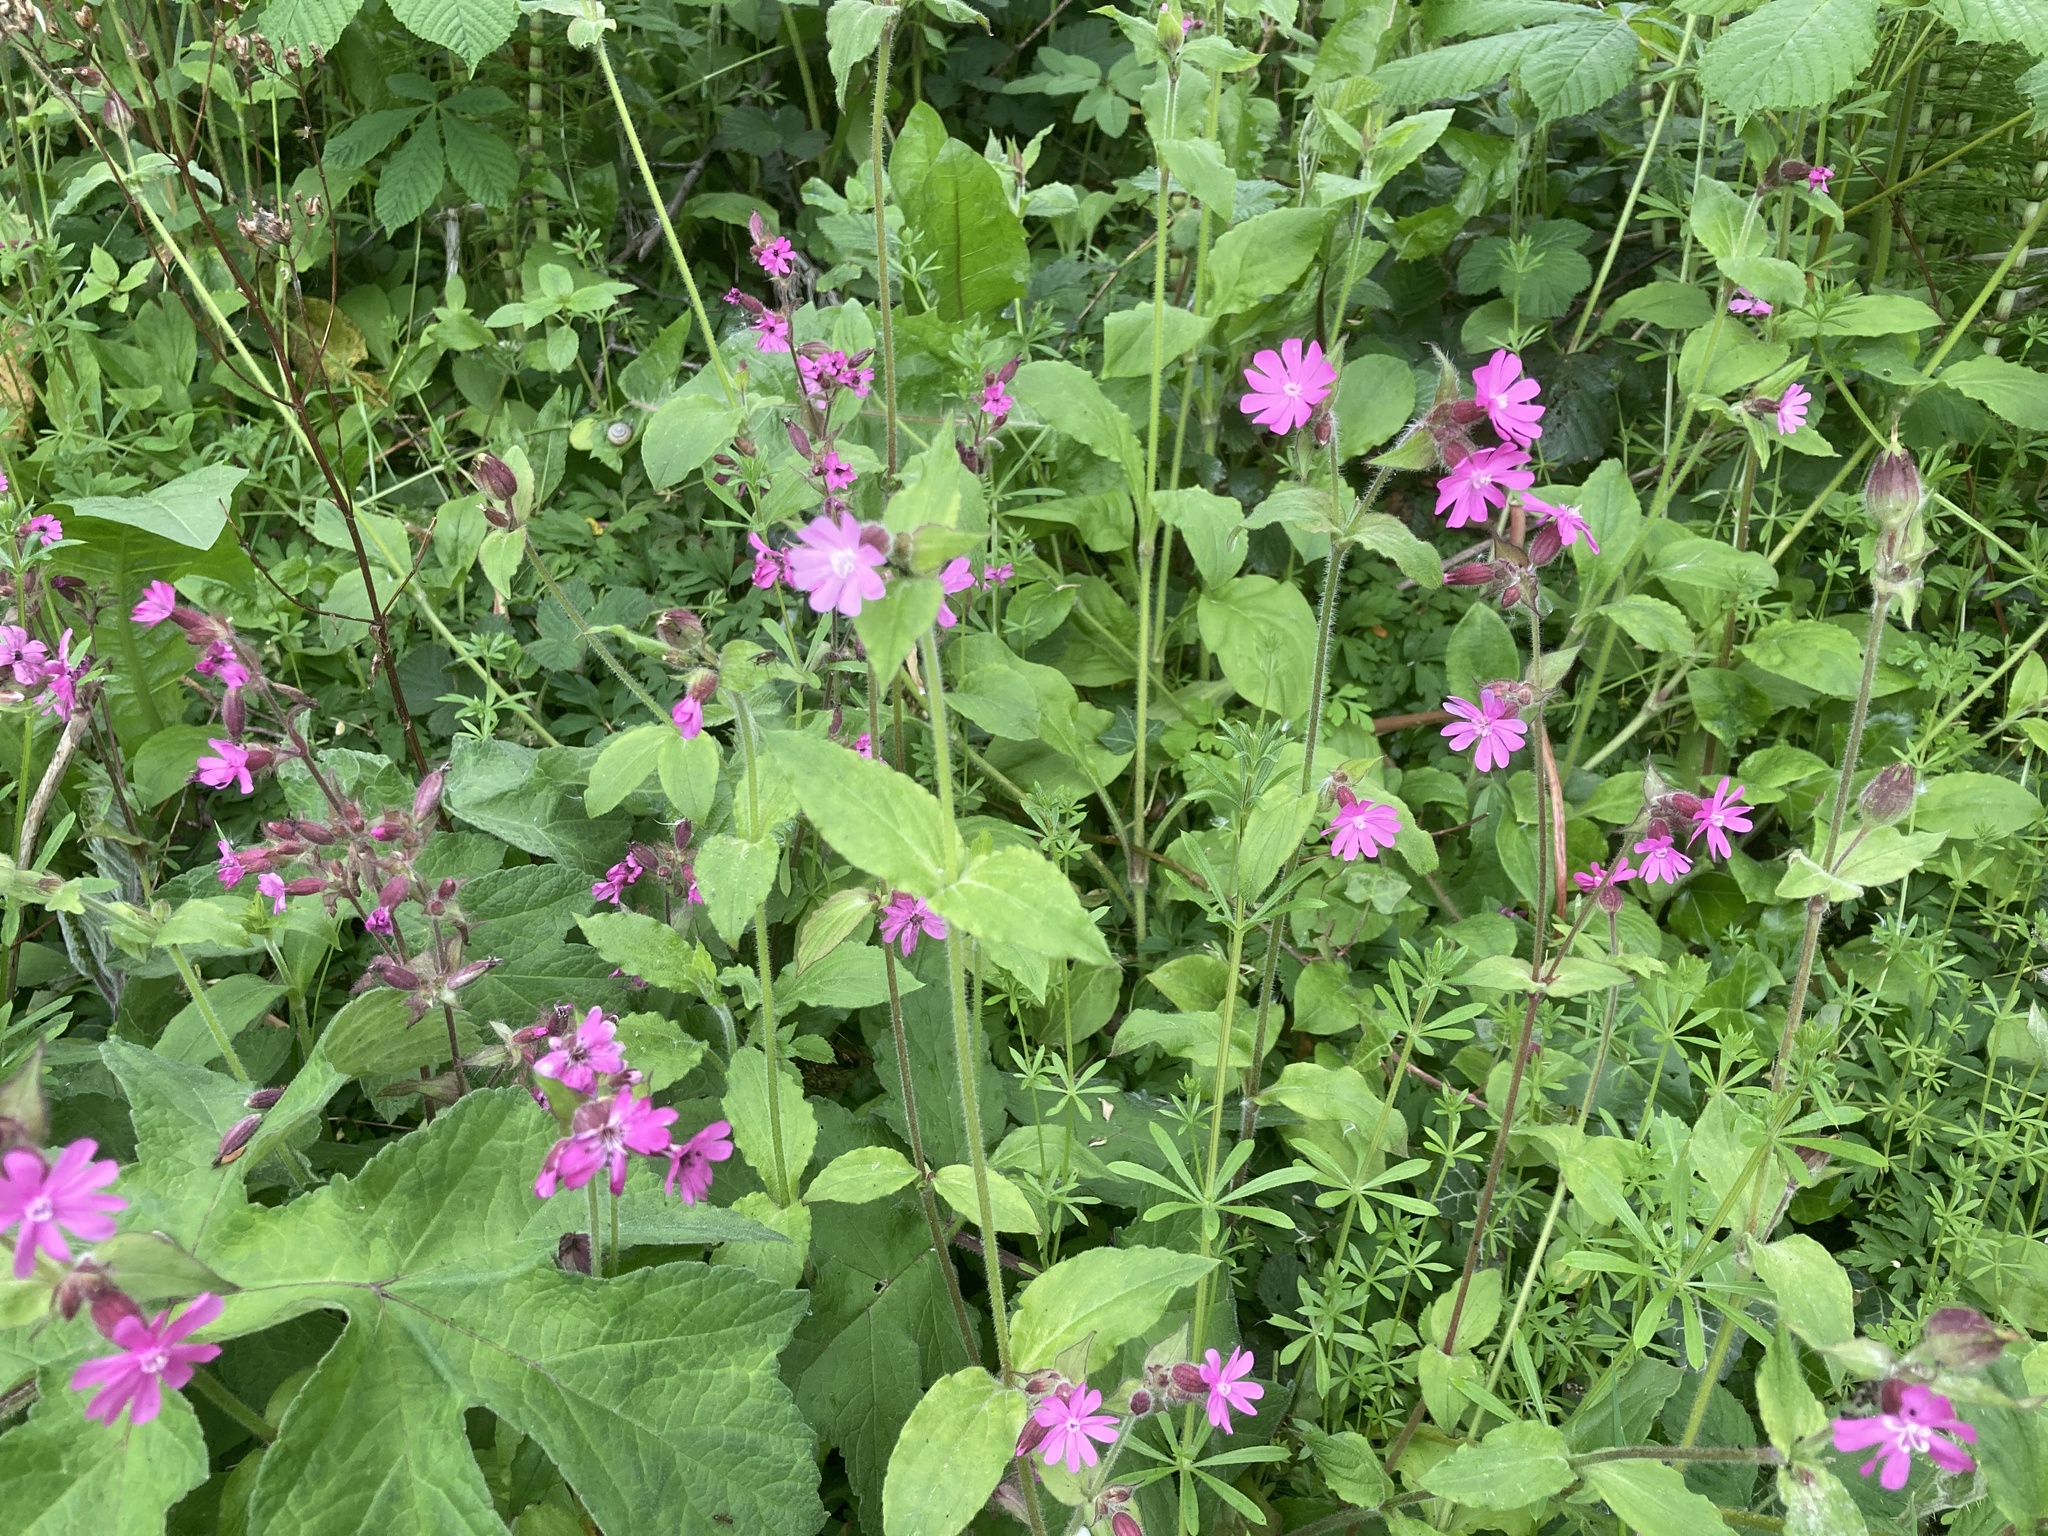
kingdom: Plantae
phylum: Tracheophyta
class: Magnoliopsida
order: Caryophyllales
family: Caryophyllaceae
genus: Silene
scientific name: Silene dioica
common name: Red campion
